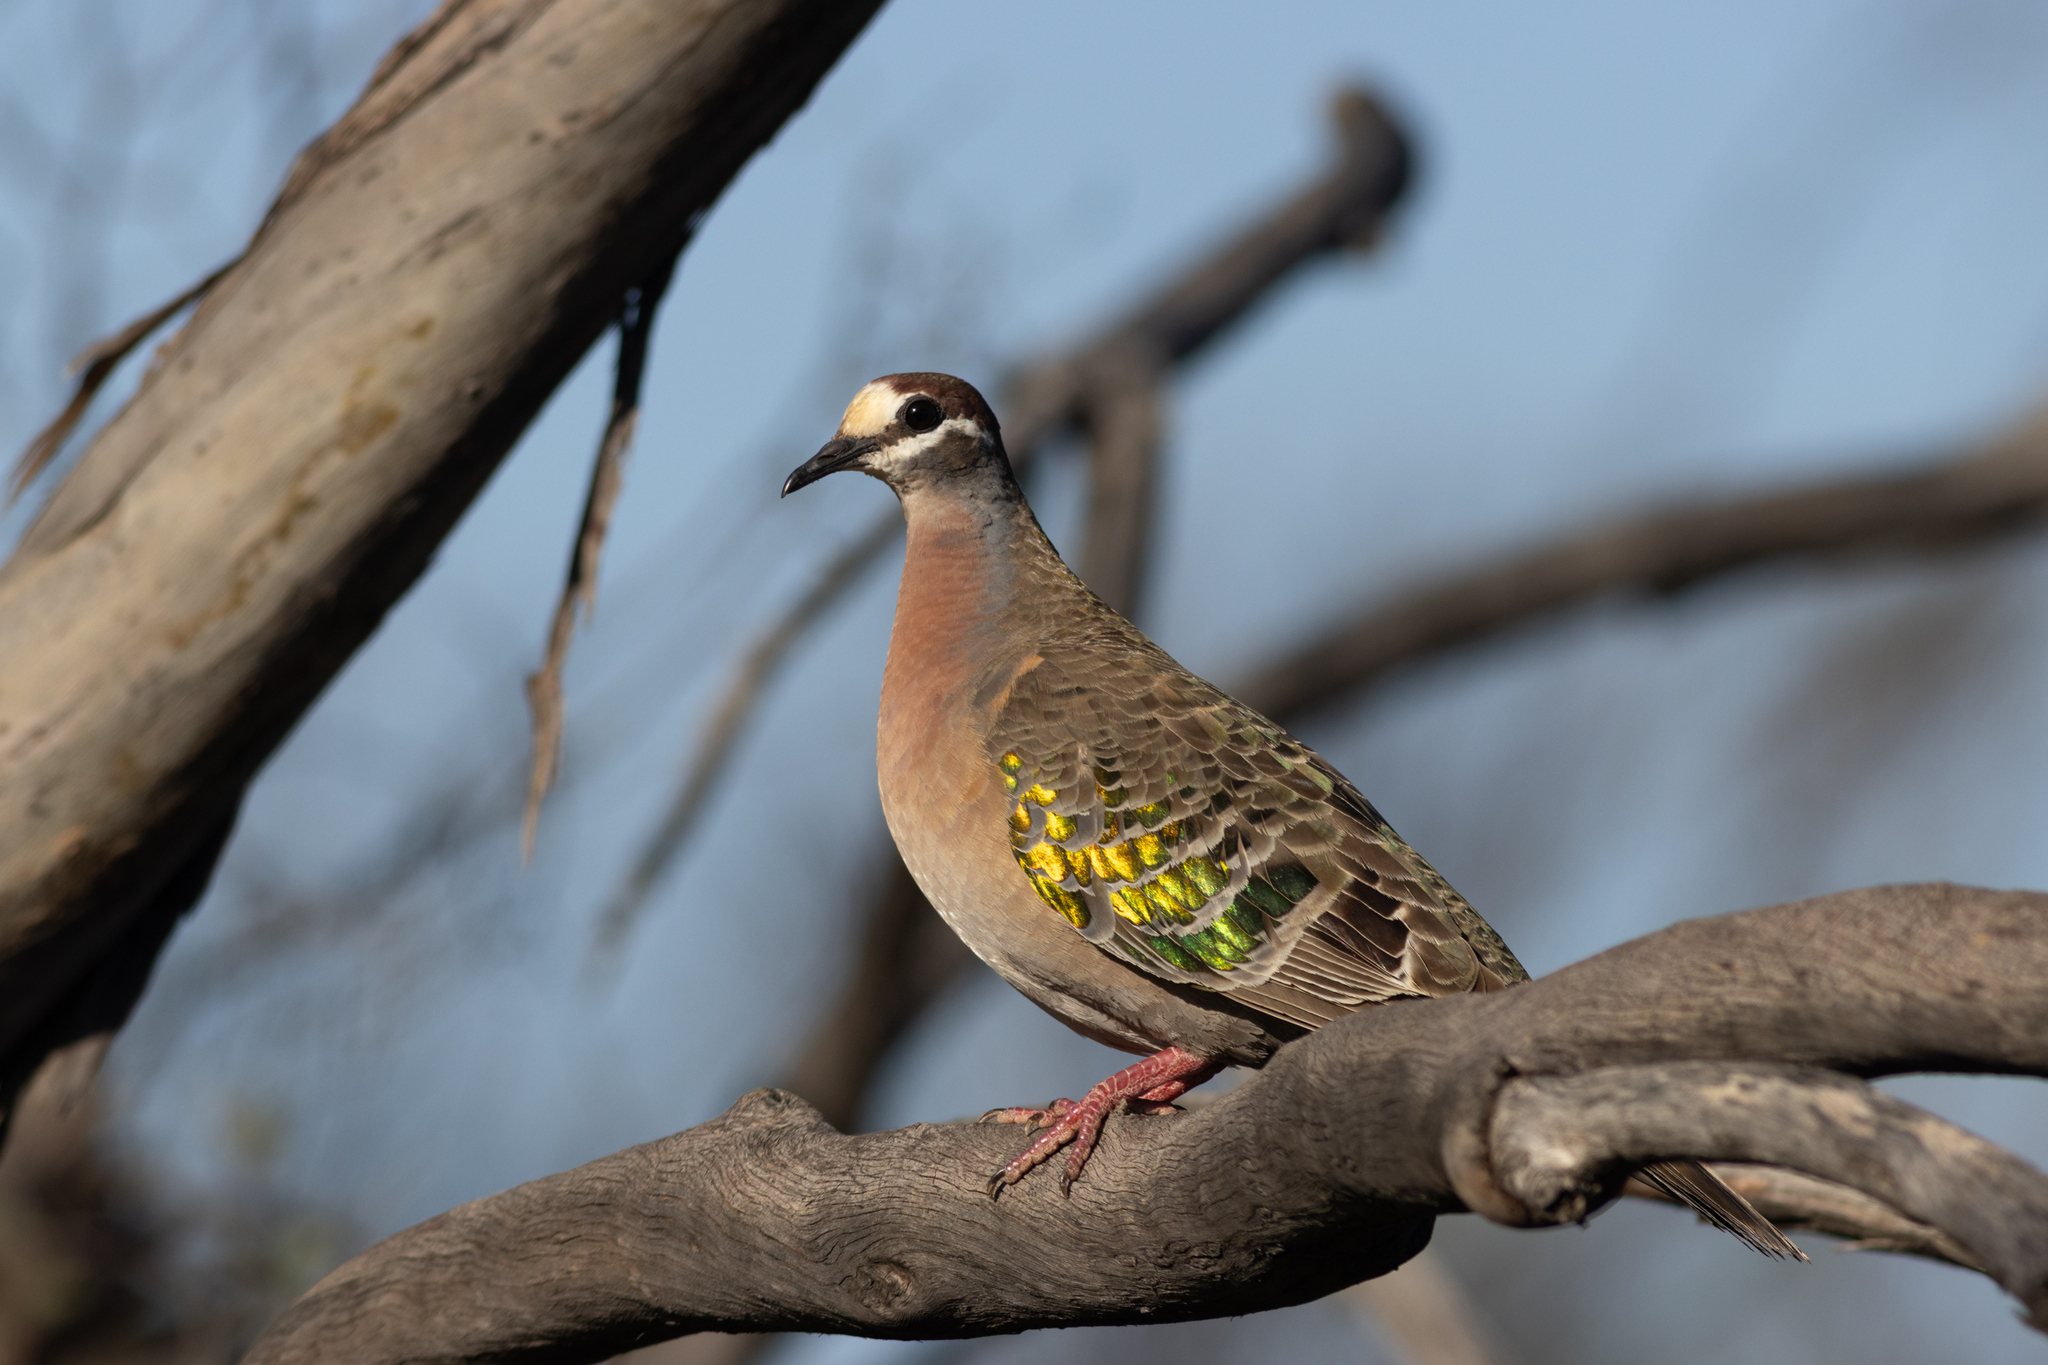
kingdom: Animalia
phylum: Chordata
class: Aves
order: Columbiformes
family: Columbidae
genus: Phaps
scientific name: Phaps chalcoptera
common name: Common bronzewing
